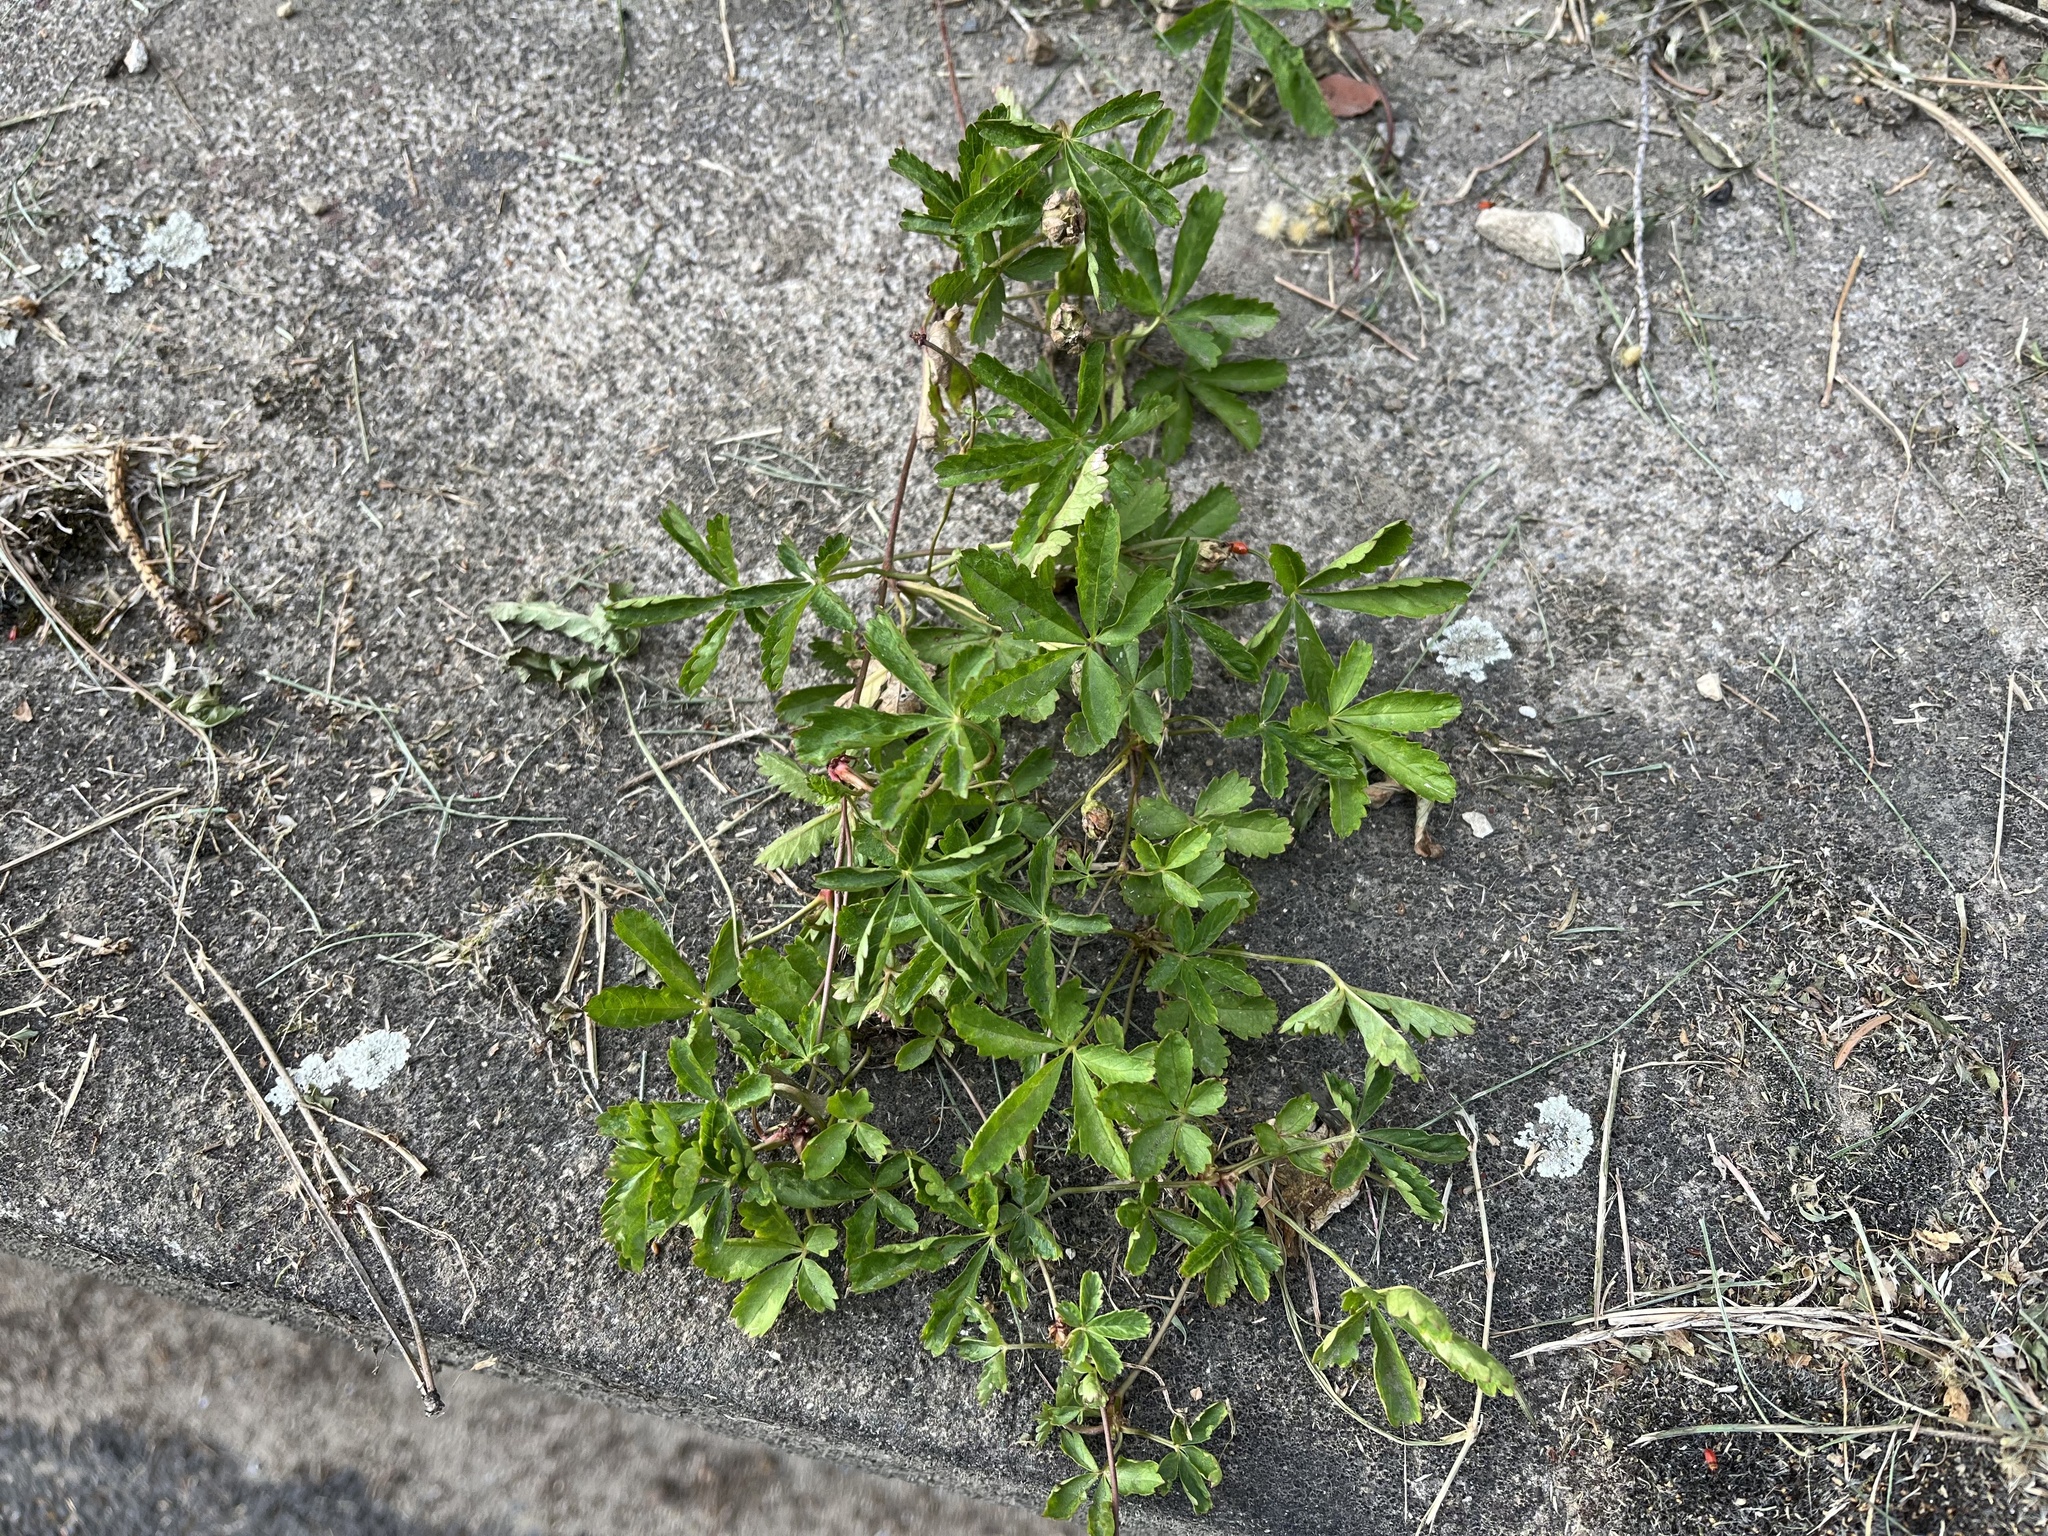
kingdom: Plantae
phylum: Tracheophyta
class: Magnoliopsida
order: Rosales
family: Rosaceae
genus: Potentilla
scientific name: Potentilla reptans
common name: Creeping cinquefoil
